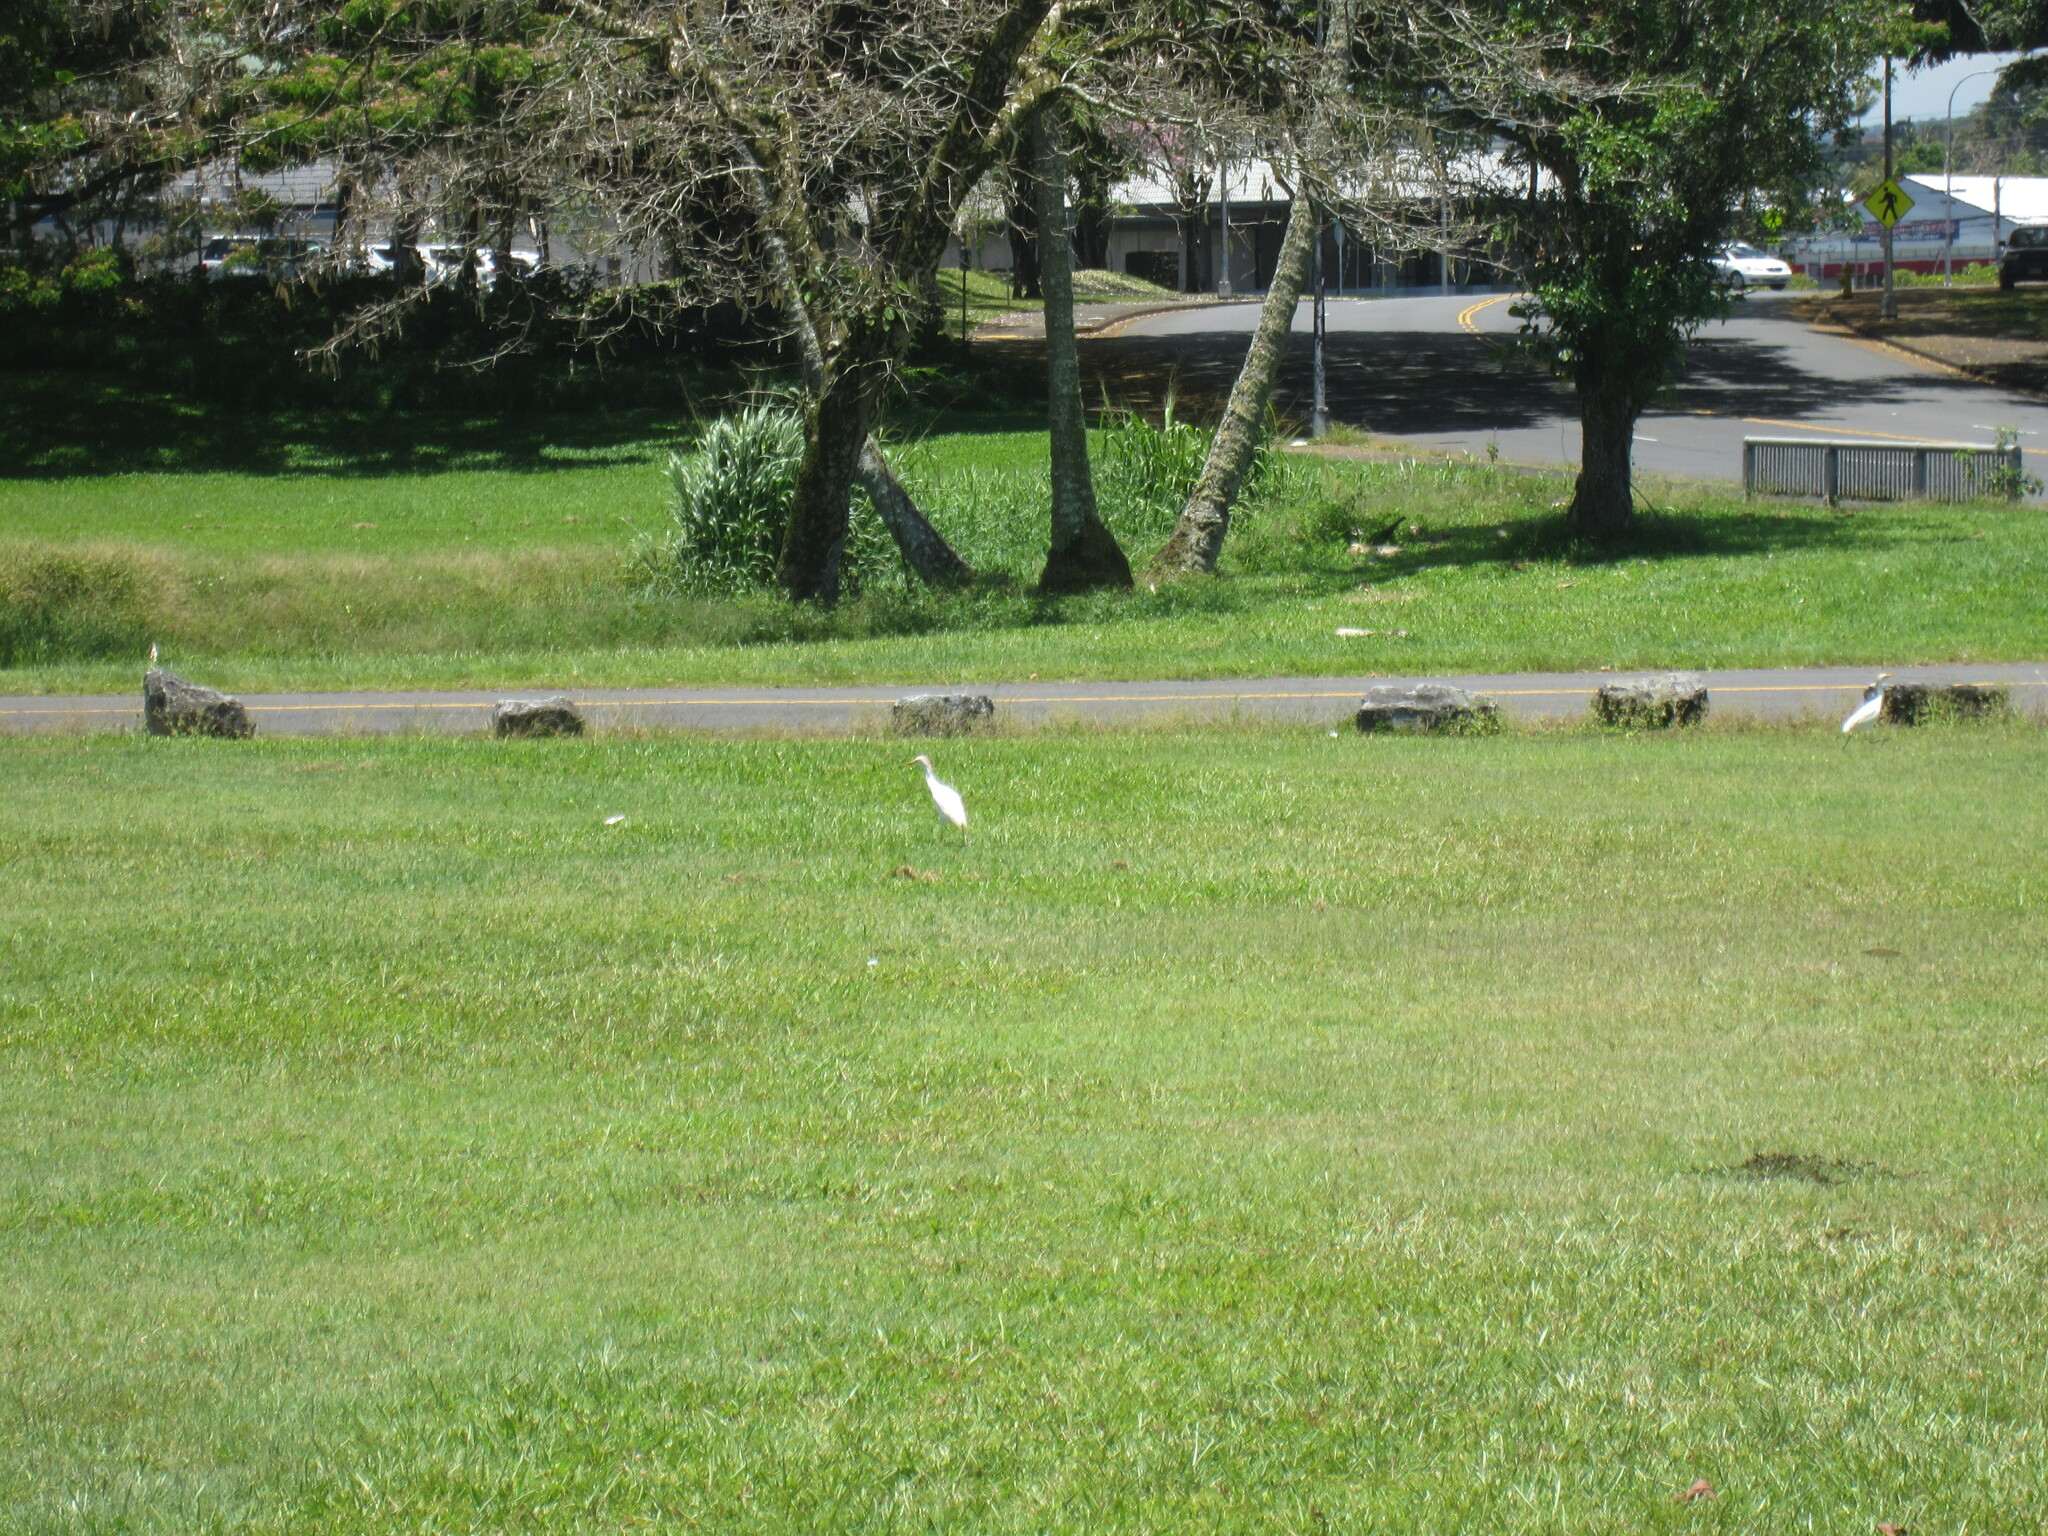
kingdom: Animalia
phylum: Chordata
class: Aves
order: Pelecaniformes
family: Ardeidae
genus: Bubulcus
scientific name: Bubulcus ibis
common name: Cattle egret
